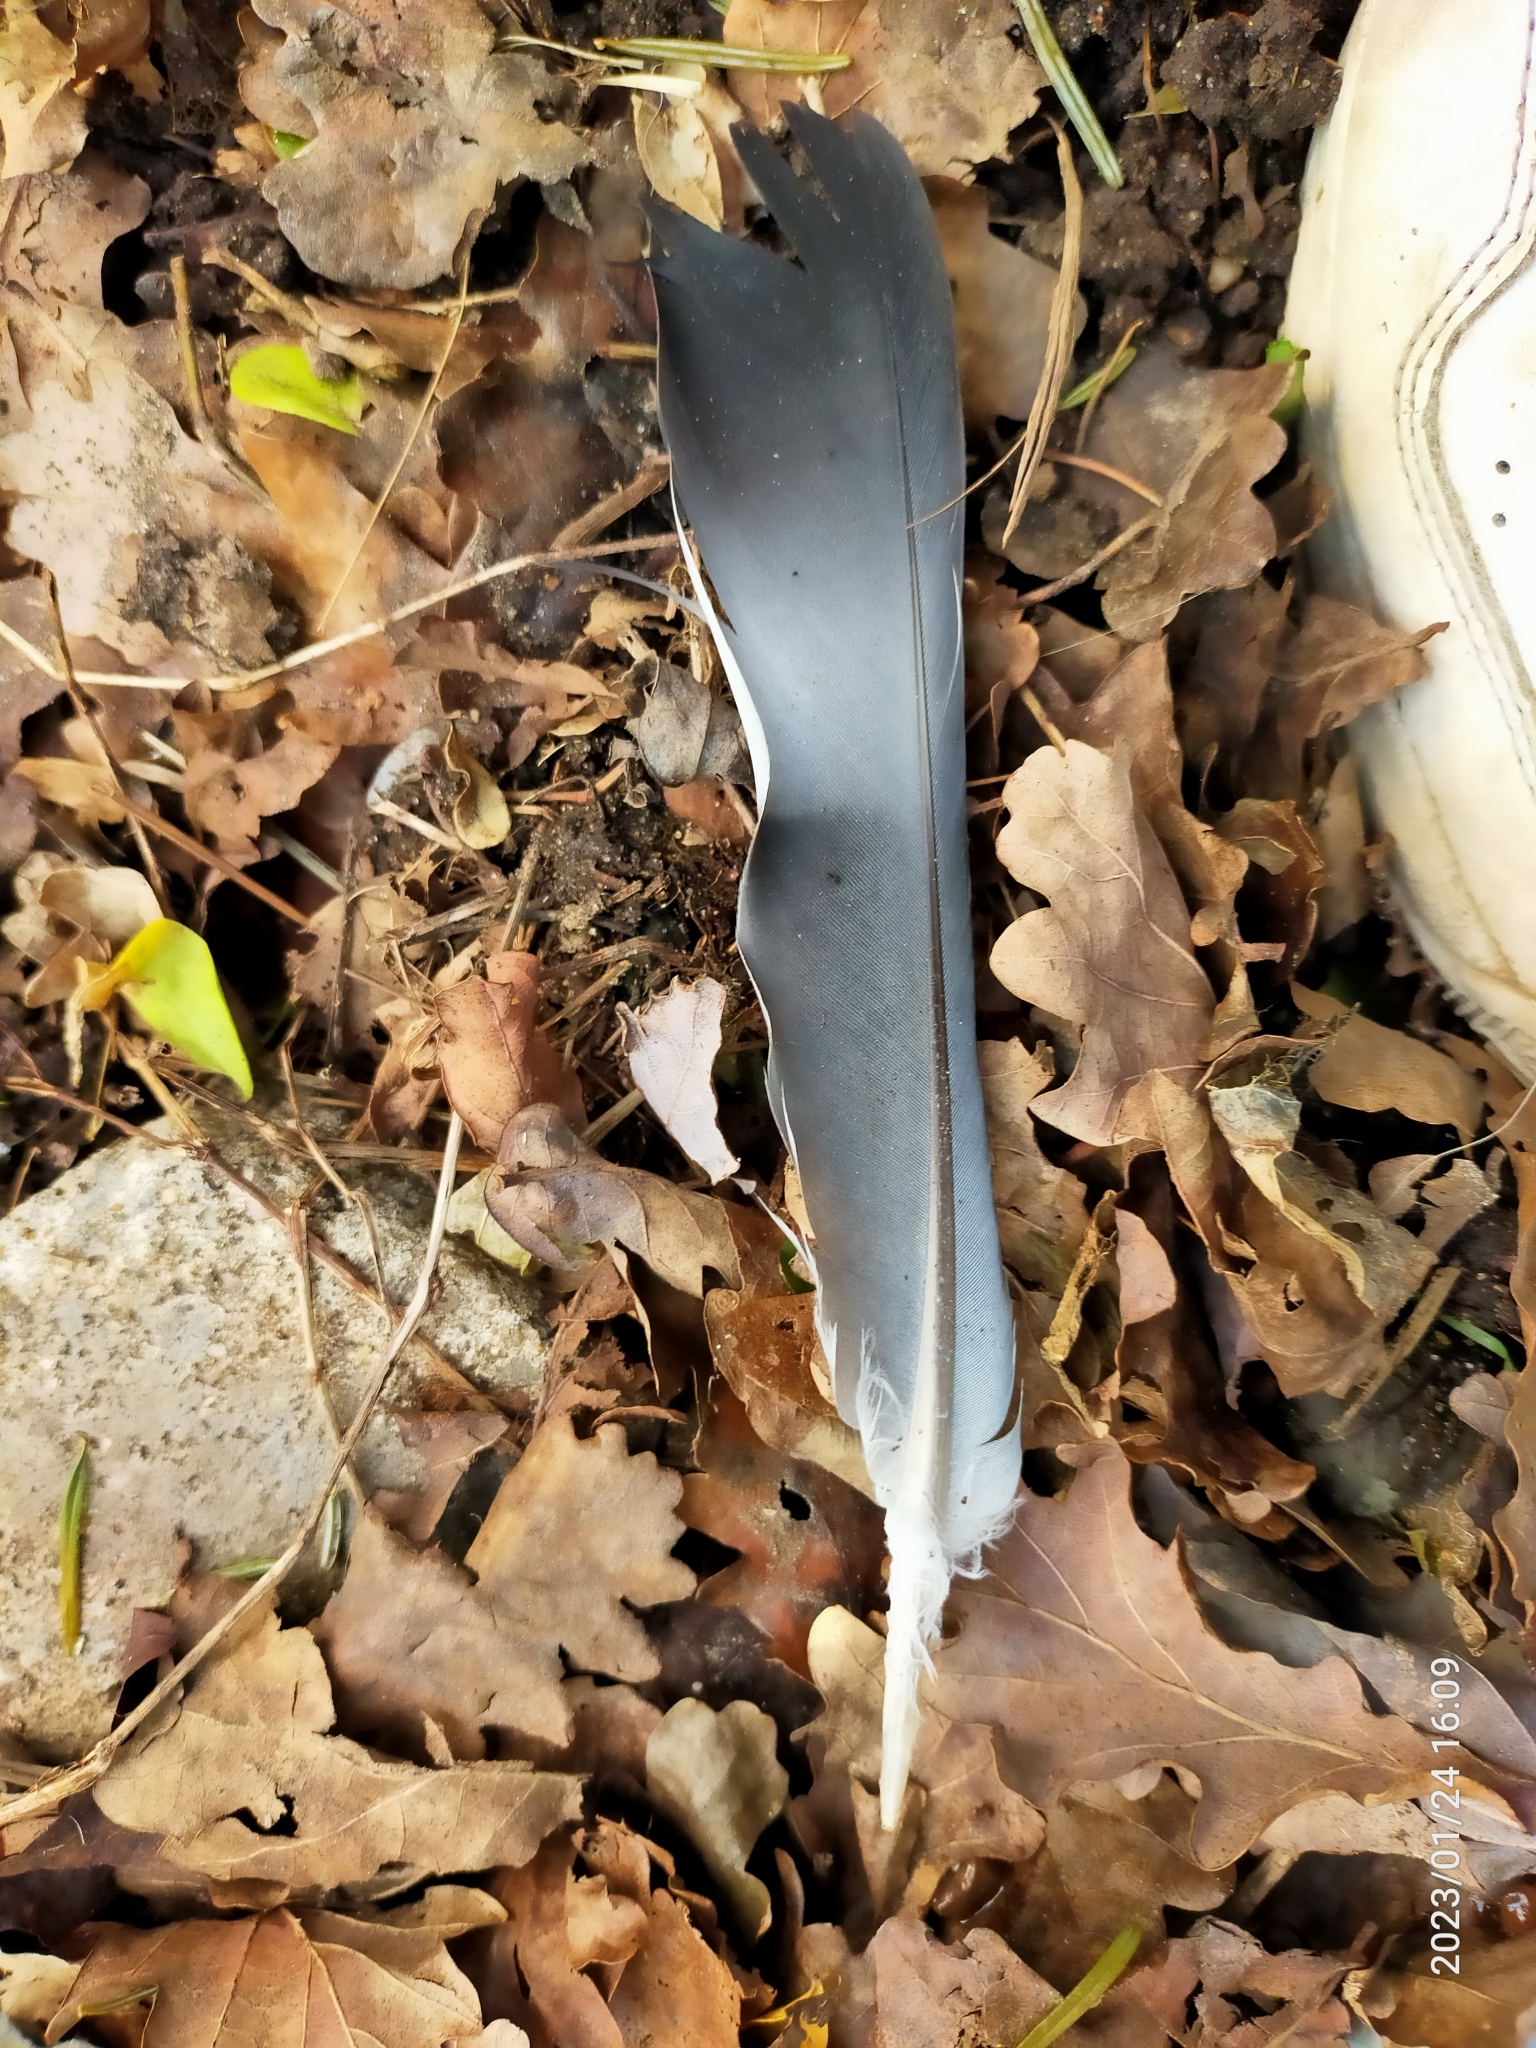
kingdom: Animalia
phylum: Chordata
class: Aves
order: Columbiformes
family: Columbidae
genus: Columba
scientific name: Columba palumbus
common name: Common wood pigeon
